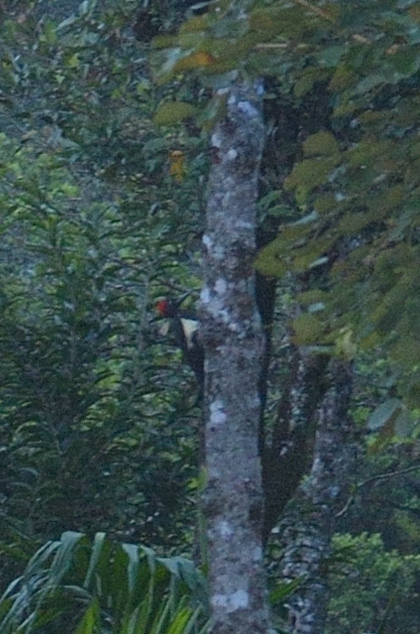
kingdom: Animalia
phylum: Chordata
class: Aves
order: Piciformes
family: Picidae
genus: Dryocopus
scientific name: Dryocopus javensis
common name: White-bellied woodpecker
